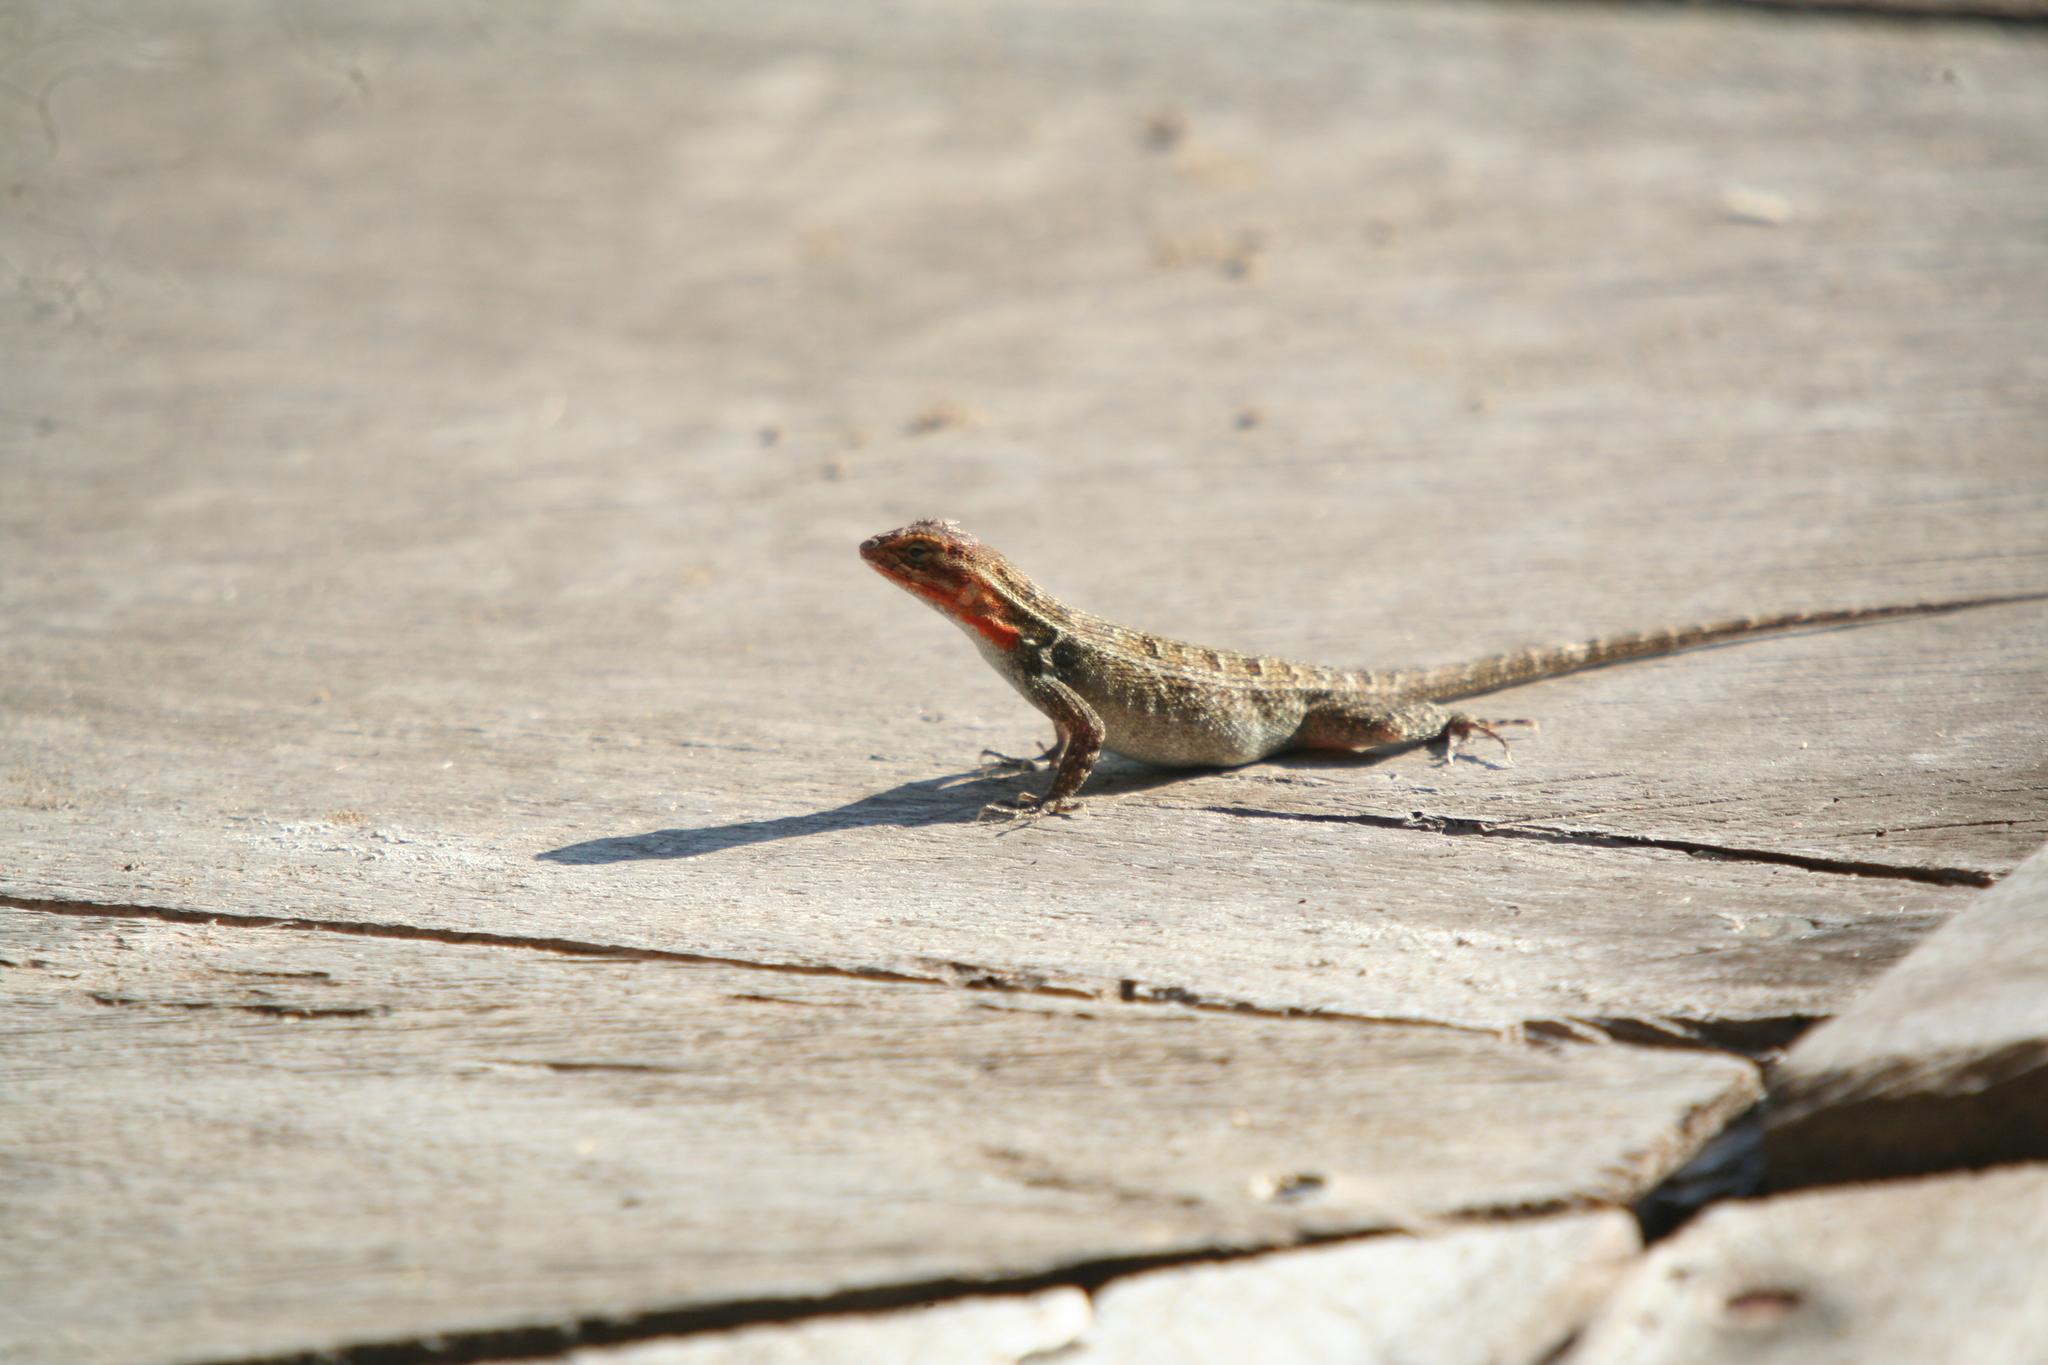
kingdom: Animalia
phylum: Chordata
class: Squamata
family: Phrynosomatidae
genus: Sceloporus
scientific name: Sceloporus variabilis
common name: Rosebelly lizard
